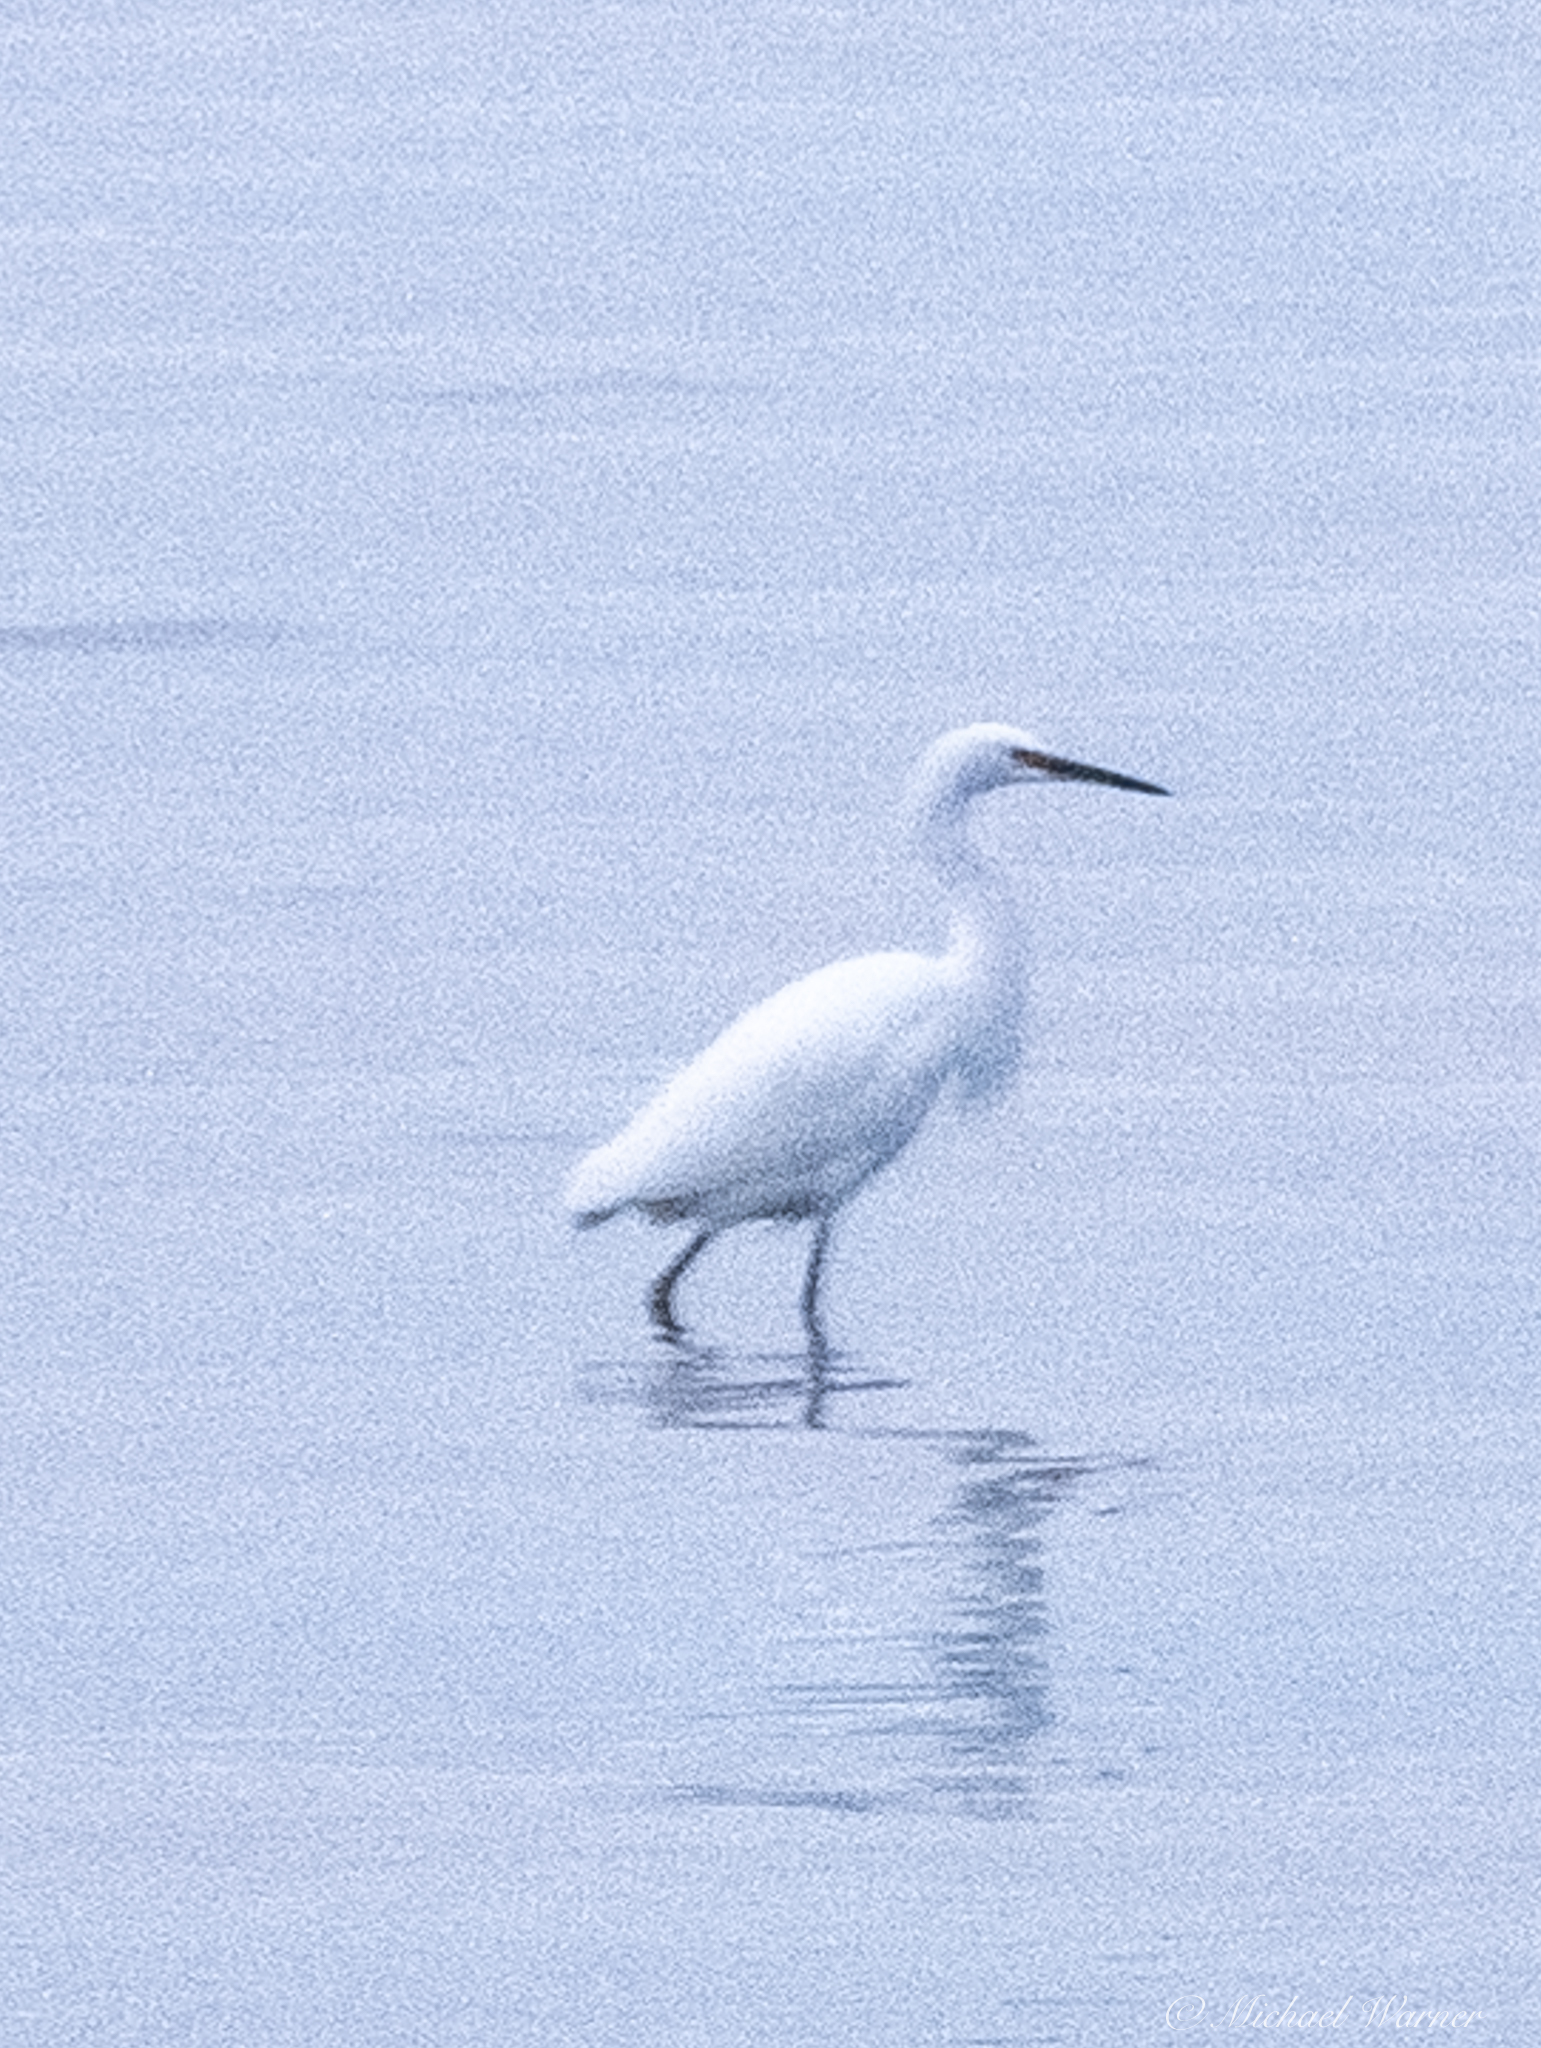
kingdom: Animalia
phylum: Chordata
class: Aves
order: Pelecaniformes
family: Ardeidae
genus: Egretta
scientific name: Egretta thula
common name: Snowy egret
